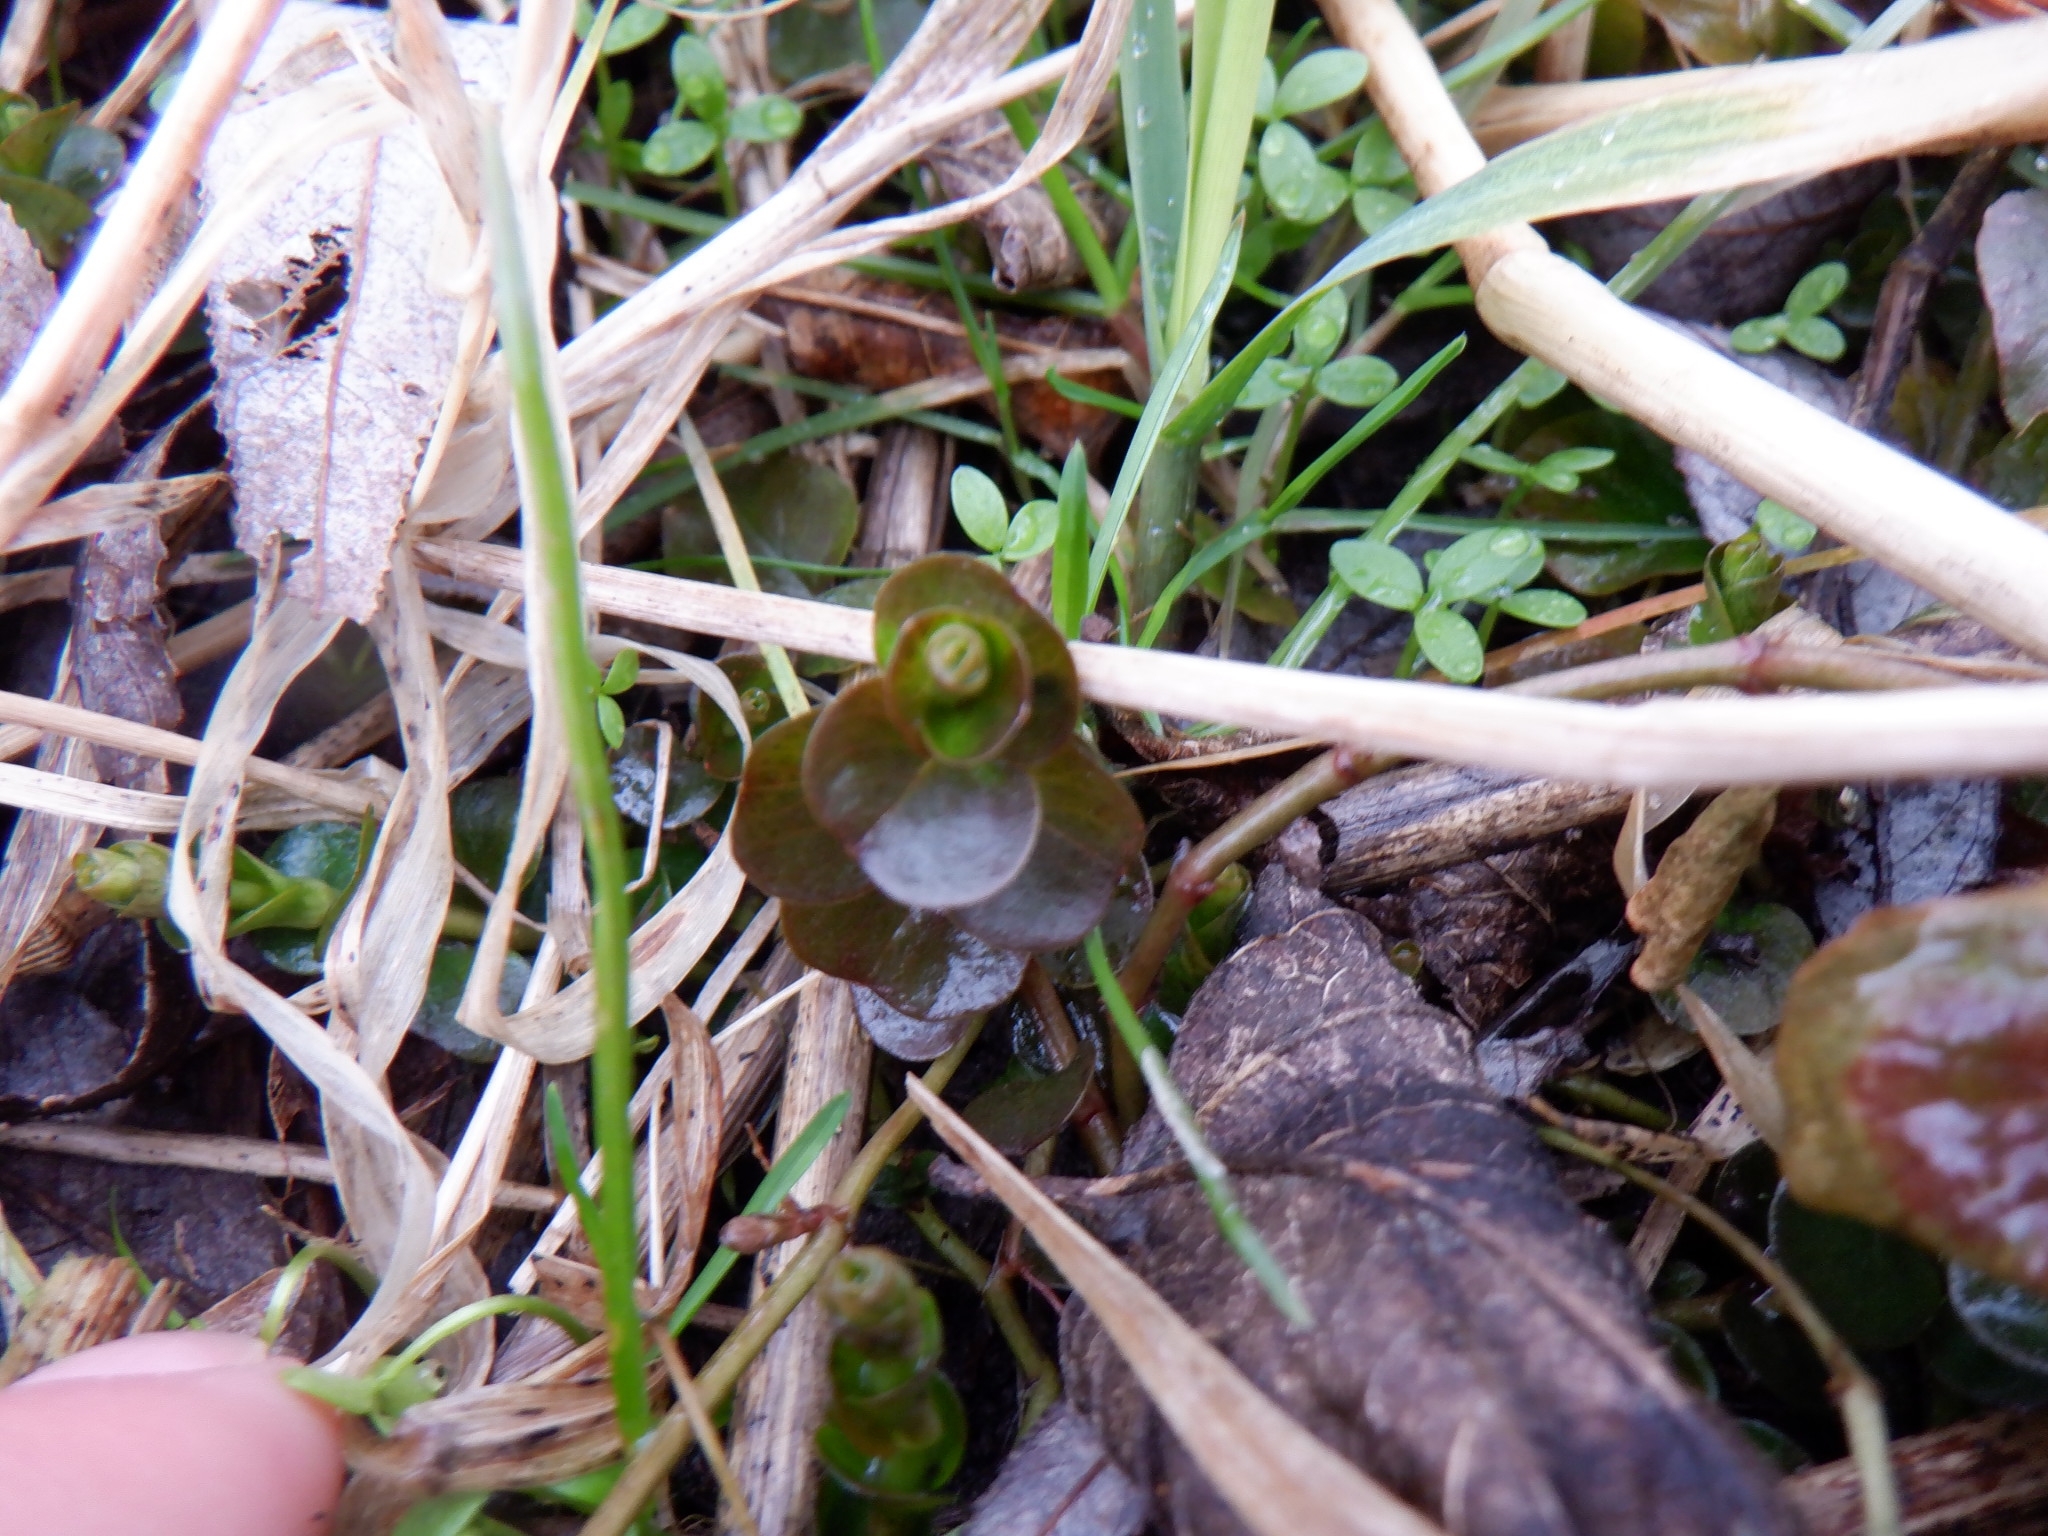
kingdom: Plantae
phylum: Tracheophyta
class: Magnoliopsida
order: Ericales
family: Primulaceae
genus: Lysimachia
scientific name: Lysimachia nummularia
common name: Moneywort
